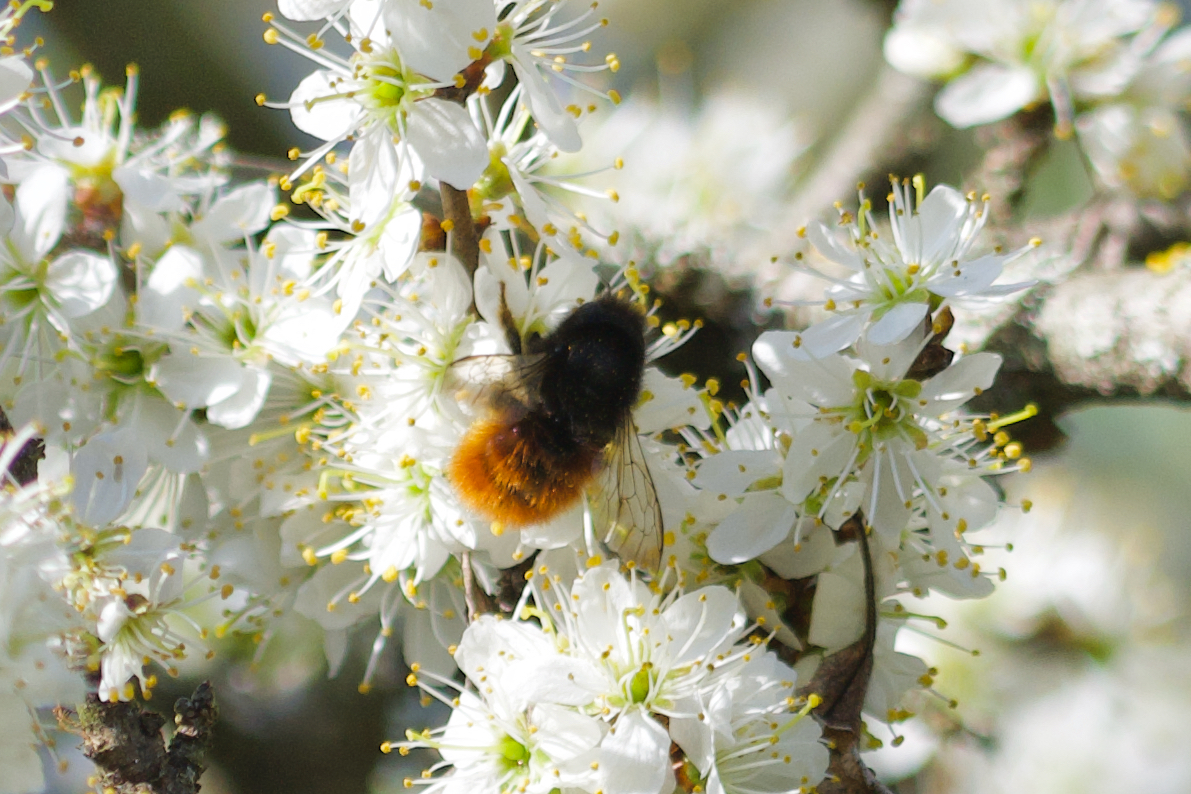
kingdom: Animalia
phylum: Arthropoda
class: Insecta
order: Hymenoptera
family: Megachilidae
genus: Osmia
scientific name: Osmia cornuta
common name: Mason bee
